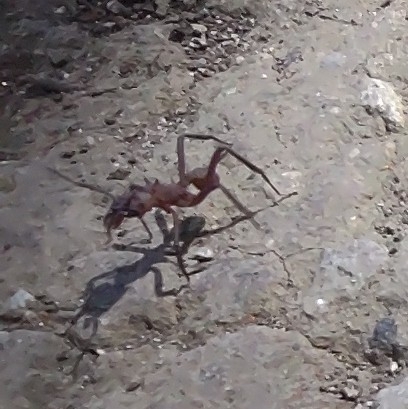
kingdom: Animalia
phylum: Arthropoda
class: Insecta
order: Hymenoptera
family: Formicidae
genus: Acromyrmex
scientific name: Acromyrmex octospinosus
